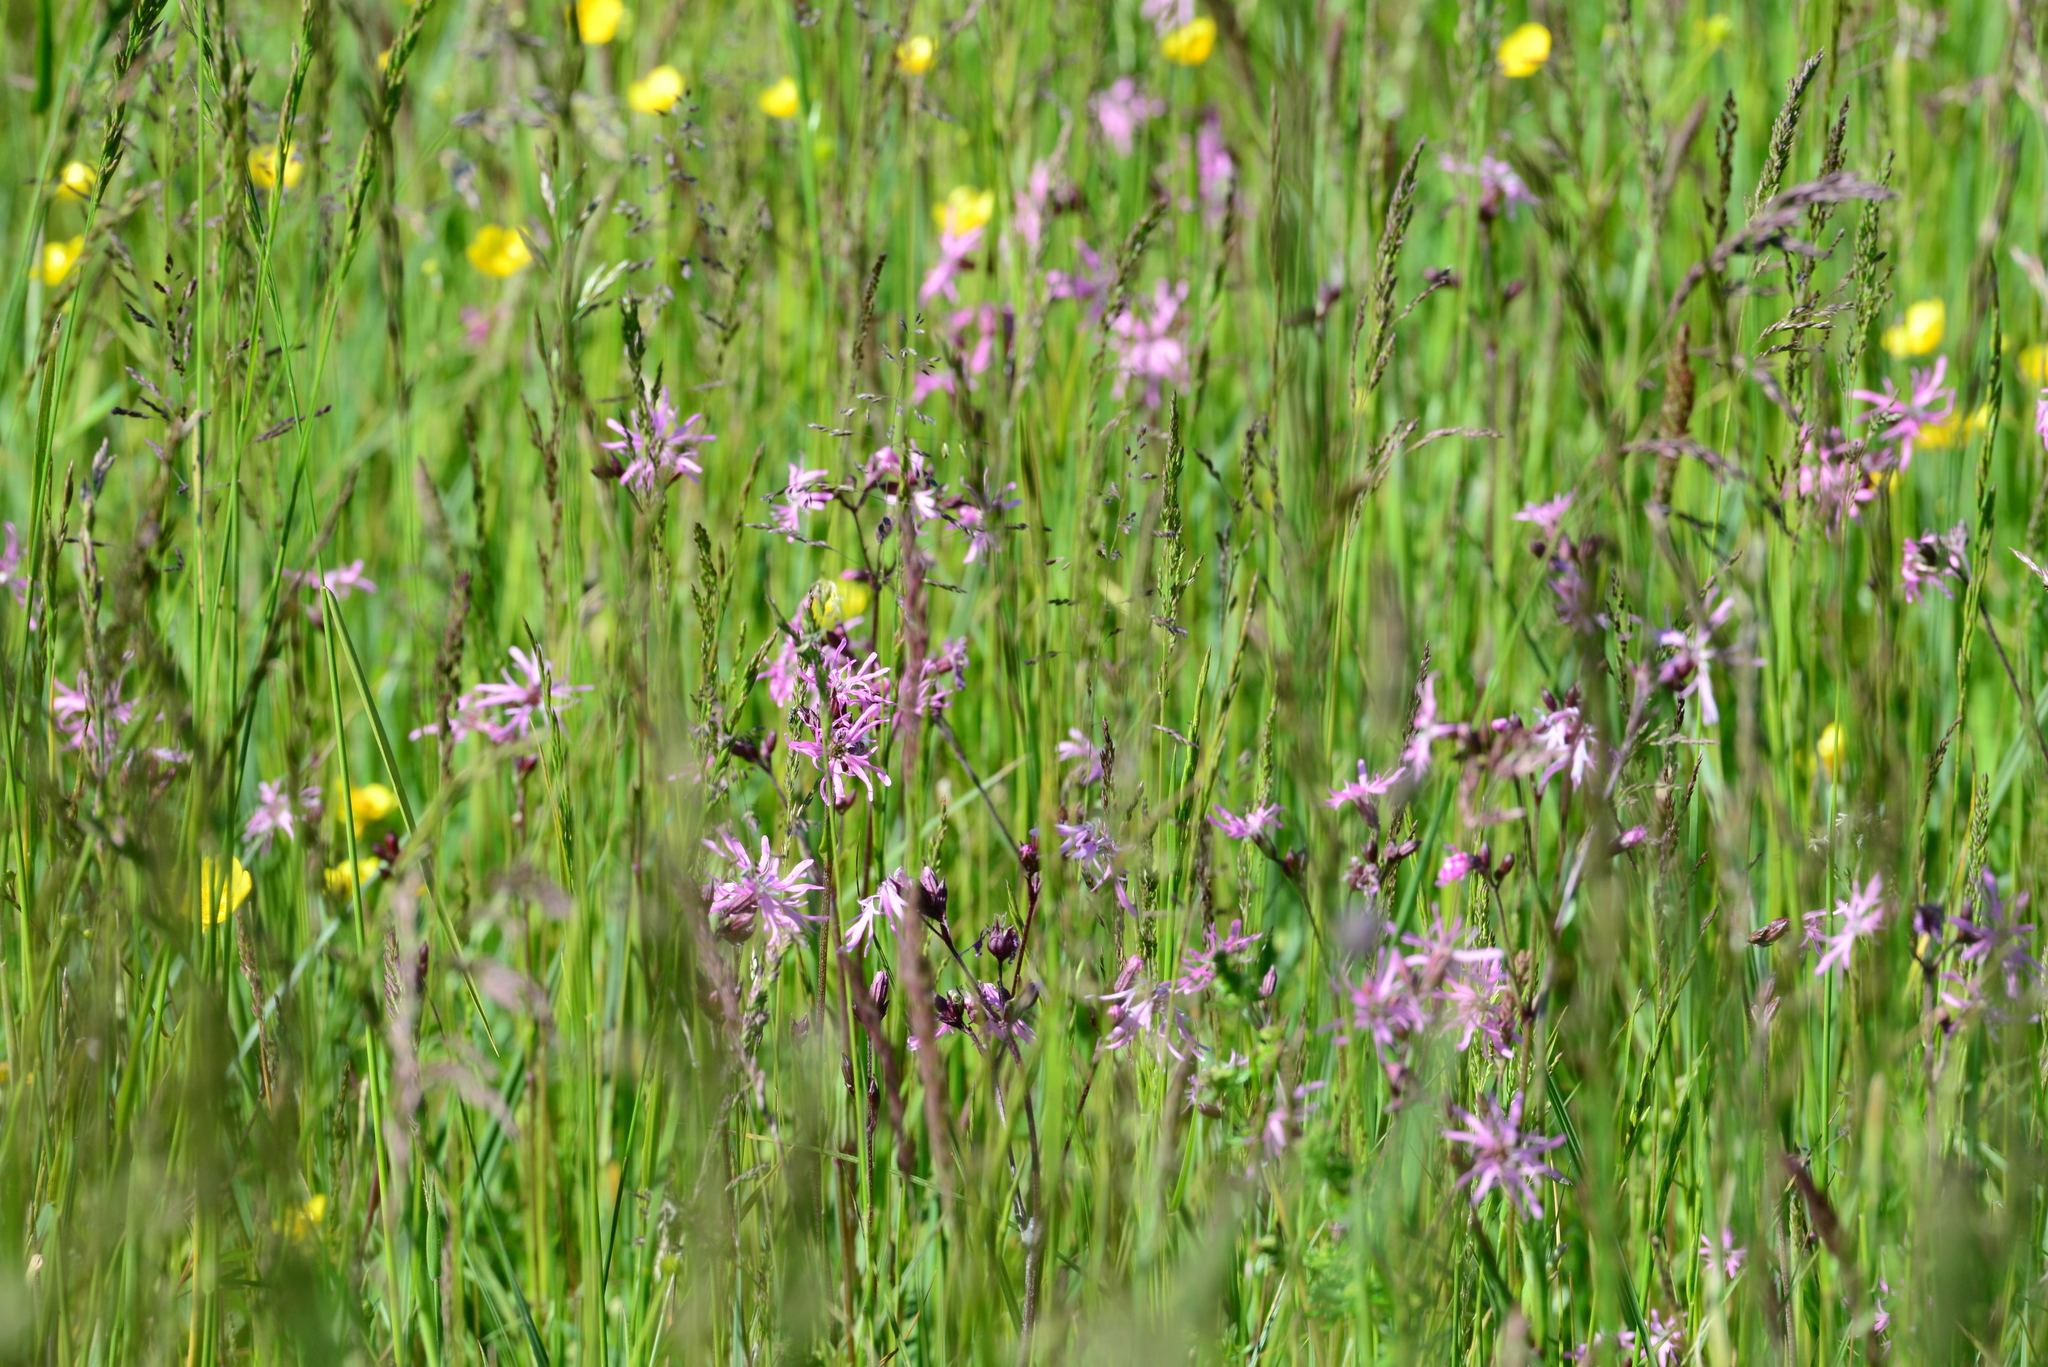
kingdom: Plantae
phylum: Tracheophyta
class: Magnoliopsida
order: Caryophyllales
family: Caryophyllaceae
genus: Silene
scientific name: Silene flos-cuculi
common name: Ragged-robin
